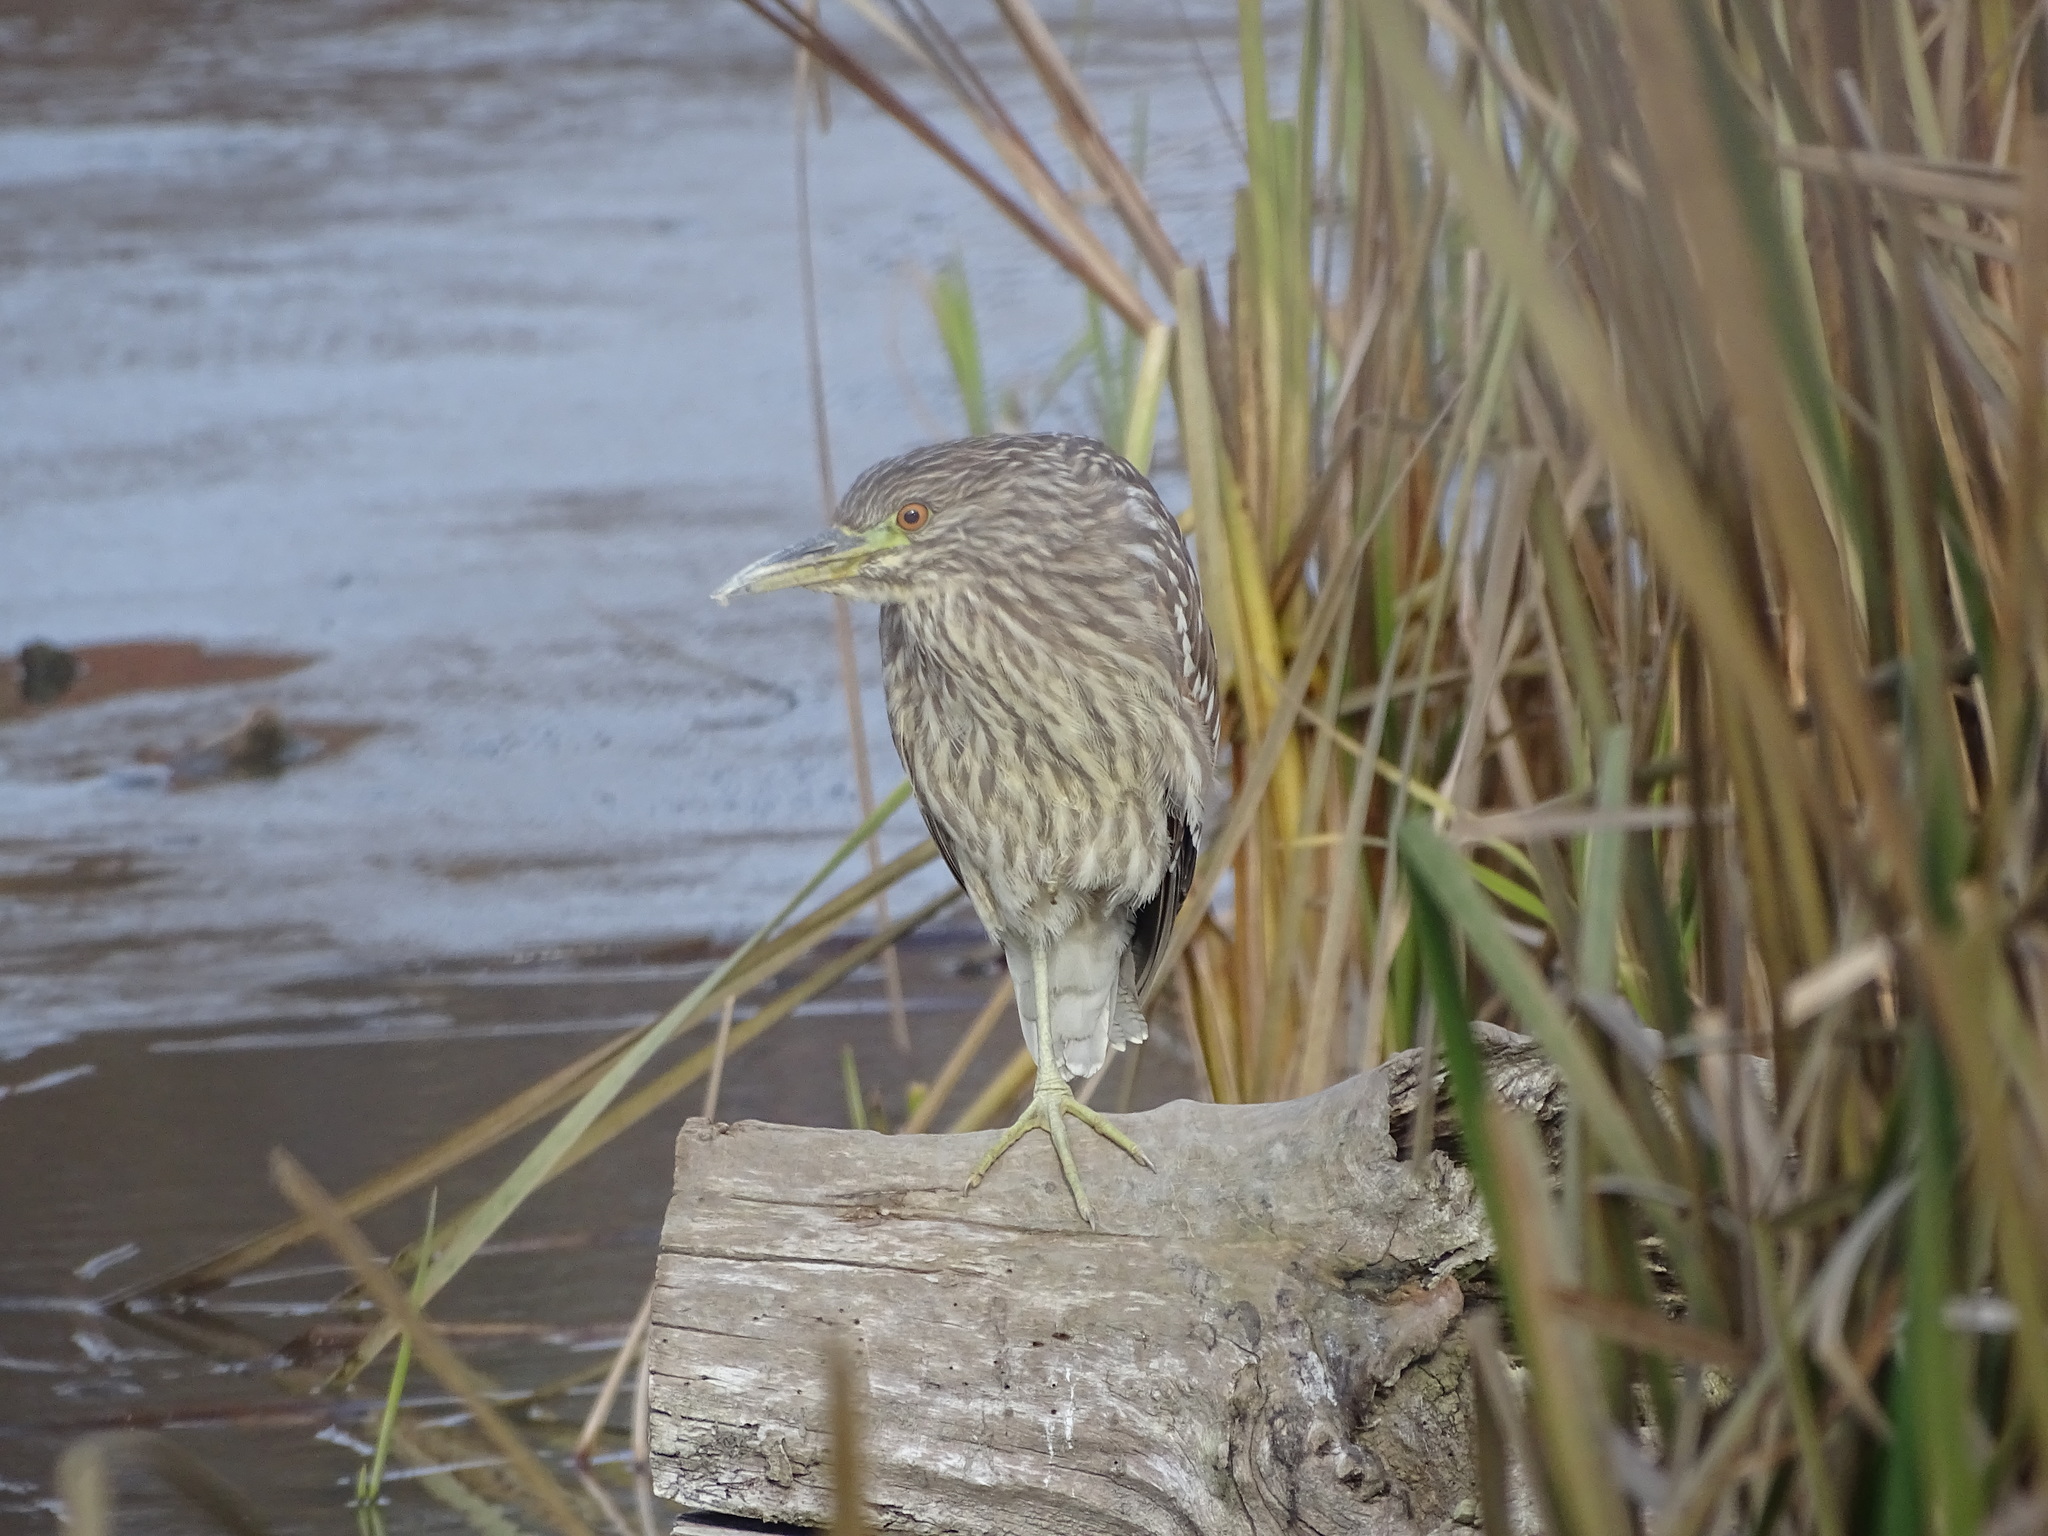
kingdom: Animalia
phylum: Chordata
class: Aves
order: Pelecaniformes
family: Ardeidae
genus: Nycticorax
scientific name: Nycticorax nycticorax
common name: Black-crowned night heron
